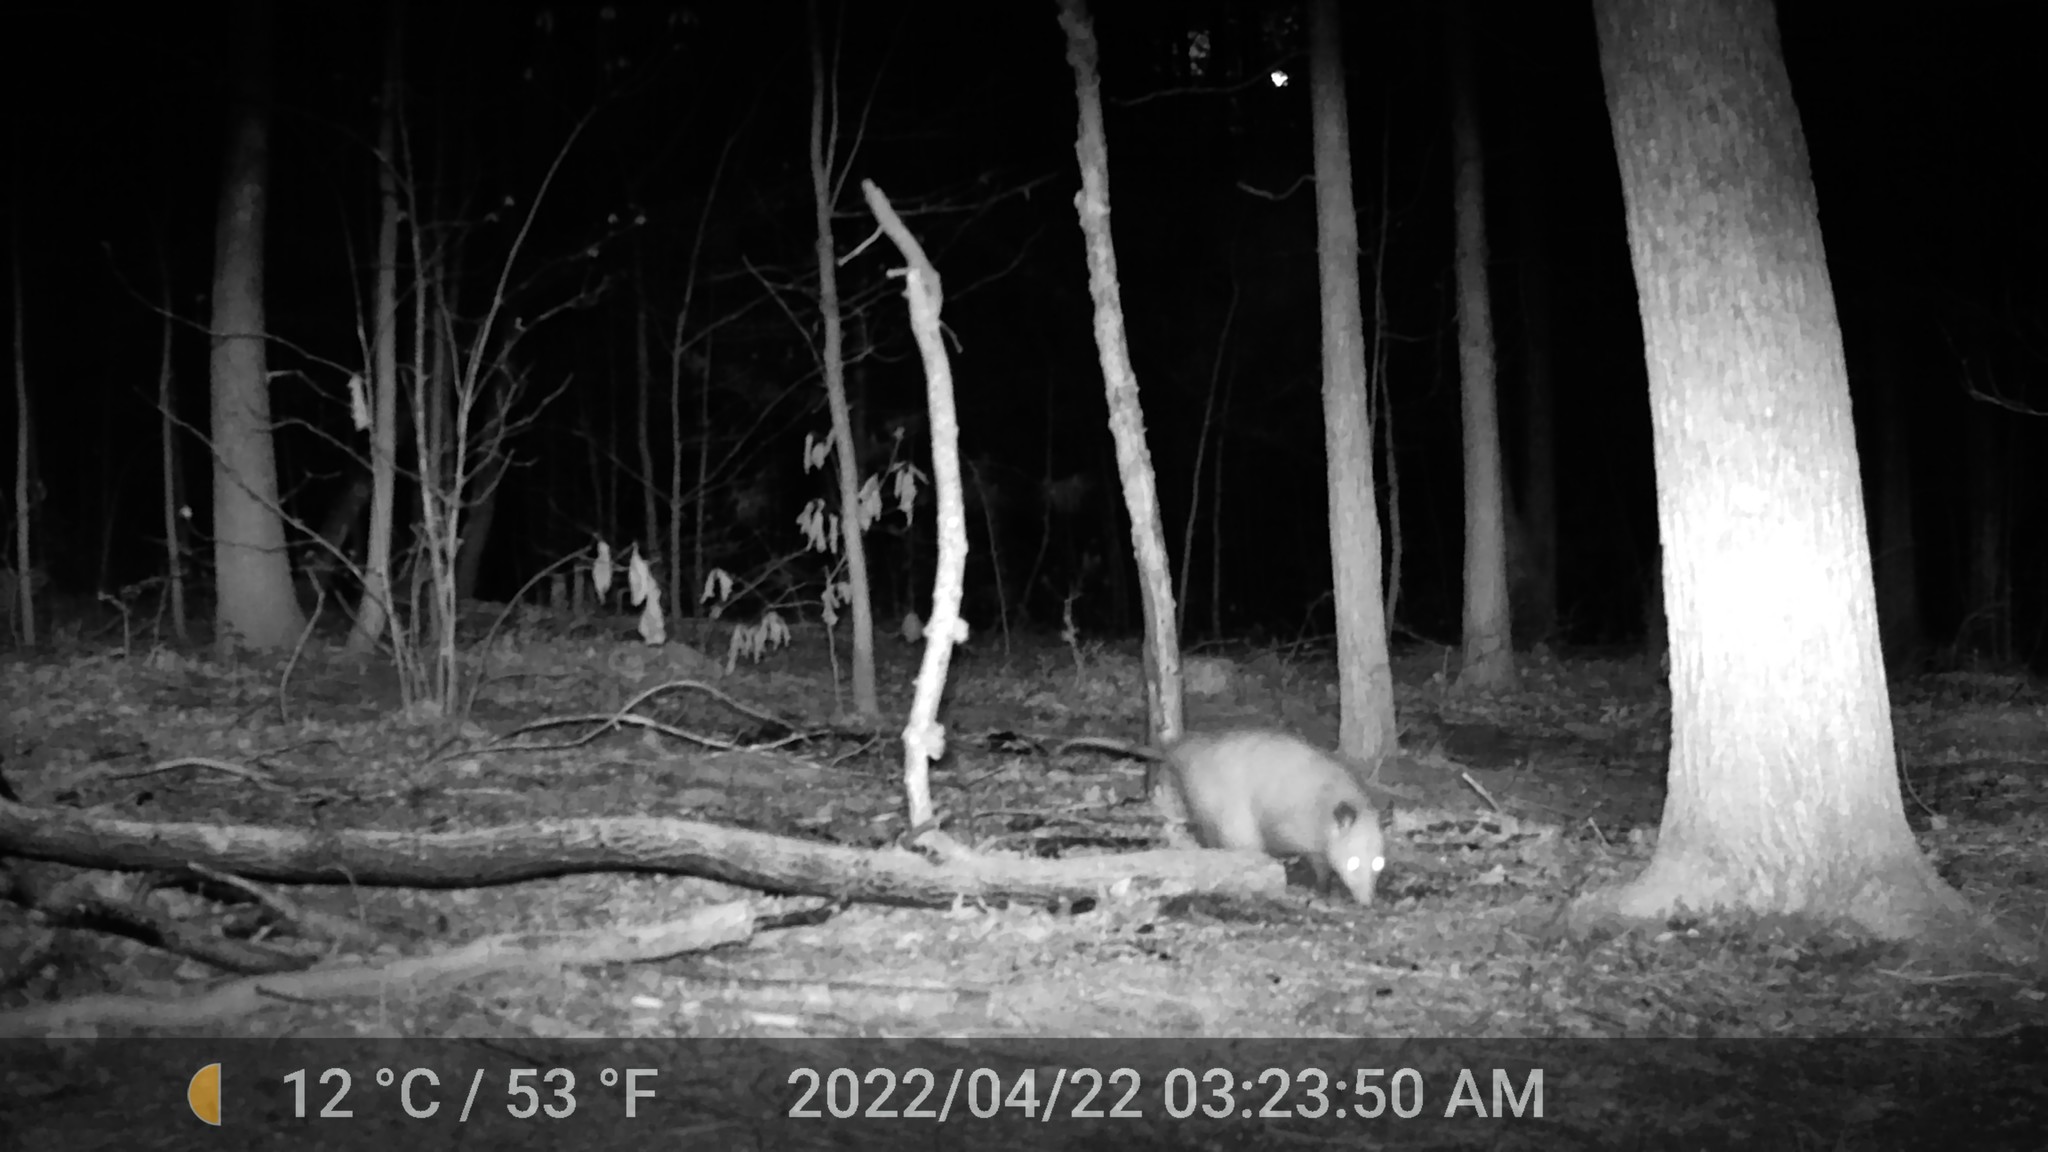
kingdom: Animalia
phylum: Chordata
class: Mammalia
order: Didelphimorphia
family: Didelphidae
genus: Didelphis
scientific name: Didelphis virginiana
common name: Virginia opossum
